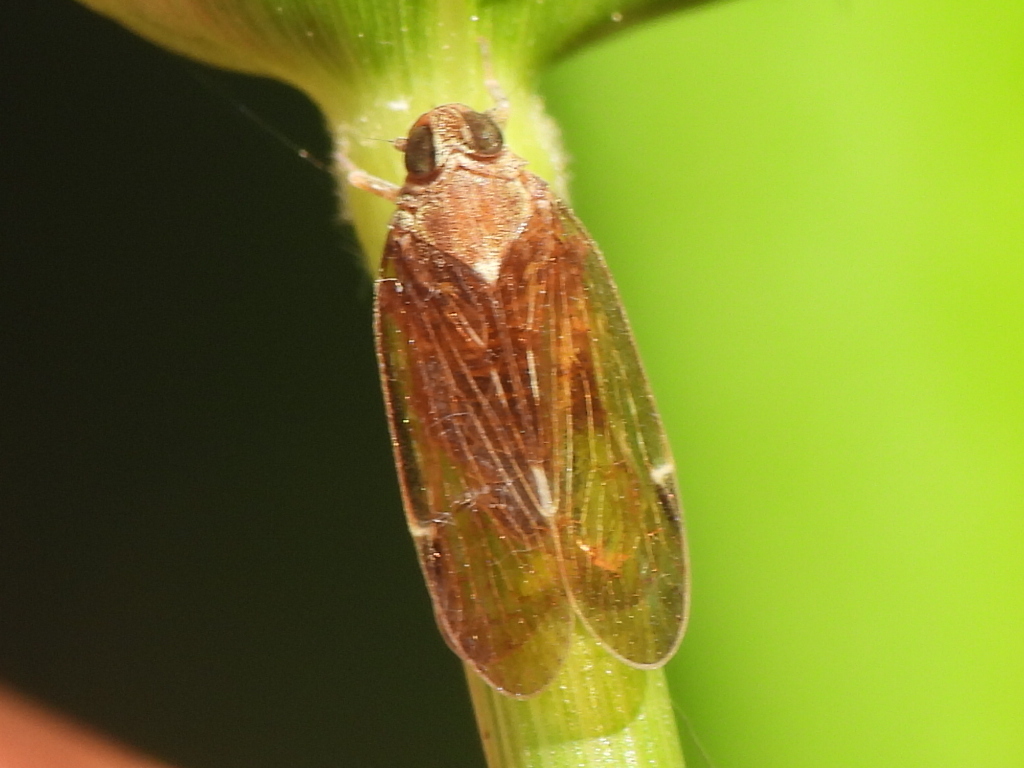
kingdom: Animalia
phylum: Arthropoda
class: Insecta
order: Hemiptera
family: Cixiidae
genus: Melanoliarus
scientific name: Melanoliarus placitus
